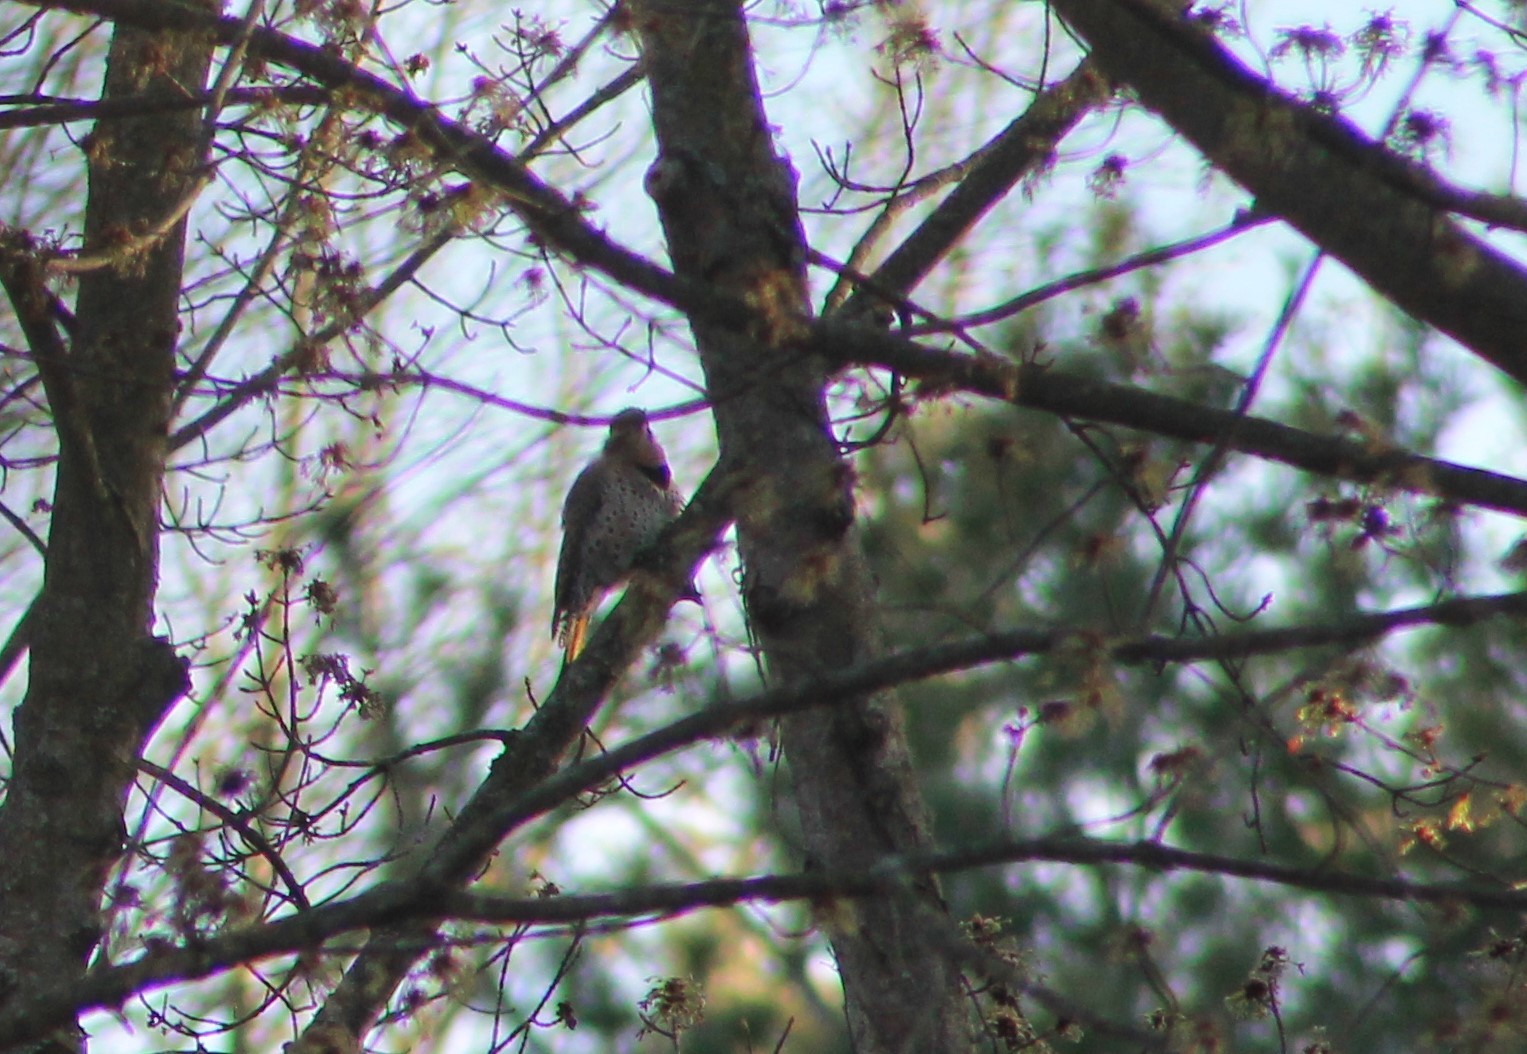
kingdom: Animalia
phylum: Chordata
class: Aves
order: Piciformes
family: Picidae
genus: Colaptes
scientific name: Colaptes auratus
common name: Northern flicker
